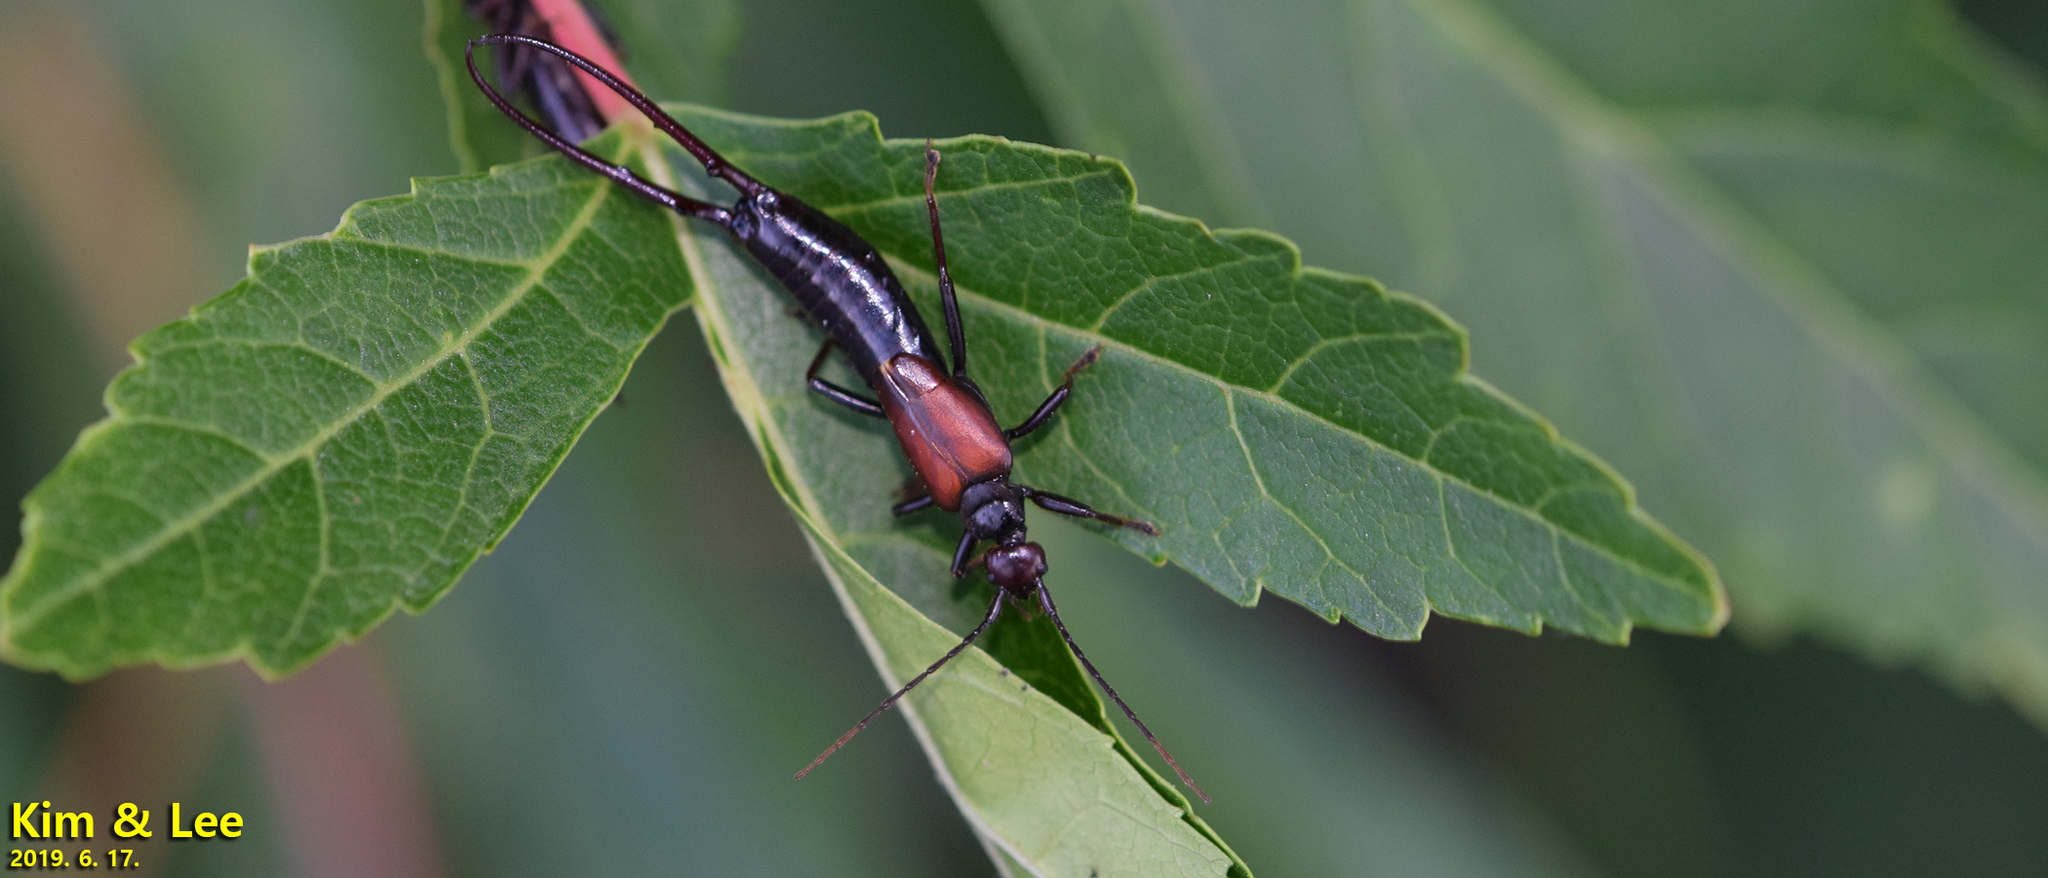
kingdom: Animalia
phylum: Arthropoda
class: Insecta
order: Dermaptera
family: Forficulidae
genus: Timomenus
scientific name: Timomenus komarovi
